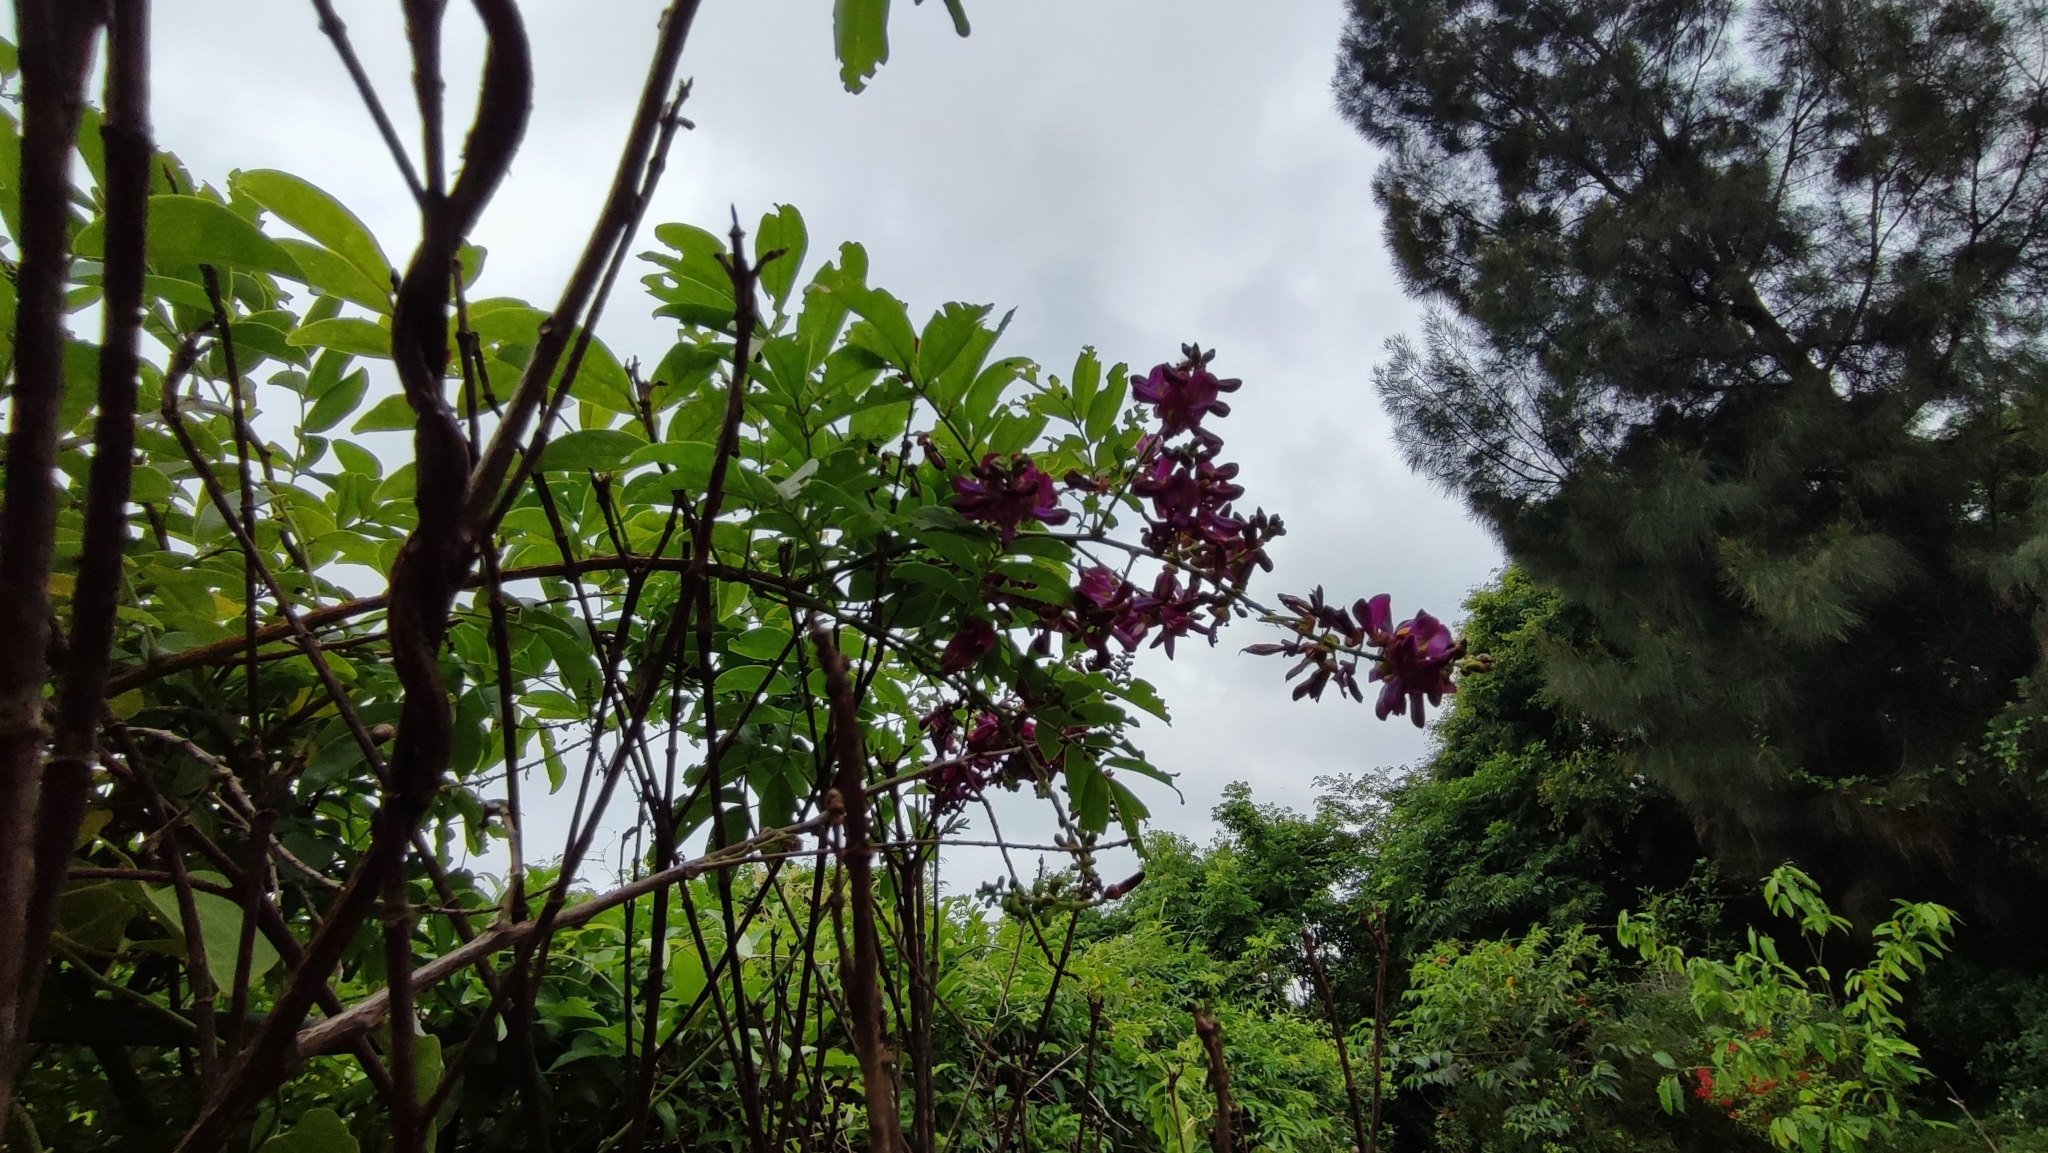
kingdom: Plantae
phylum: Tracheophyta
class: Magnoliopsida
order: Fabales
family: Fabaceae
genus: Wisteriopsis
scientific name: Wisteriopsis reticulata
